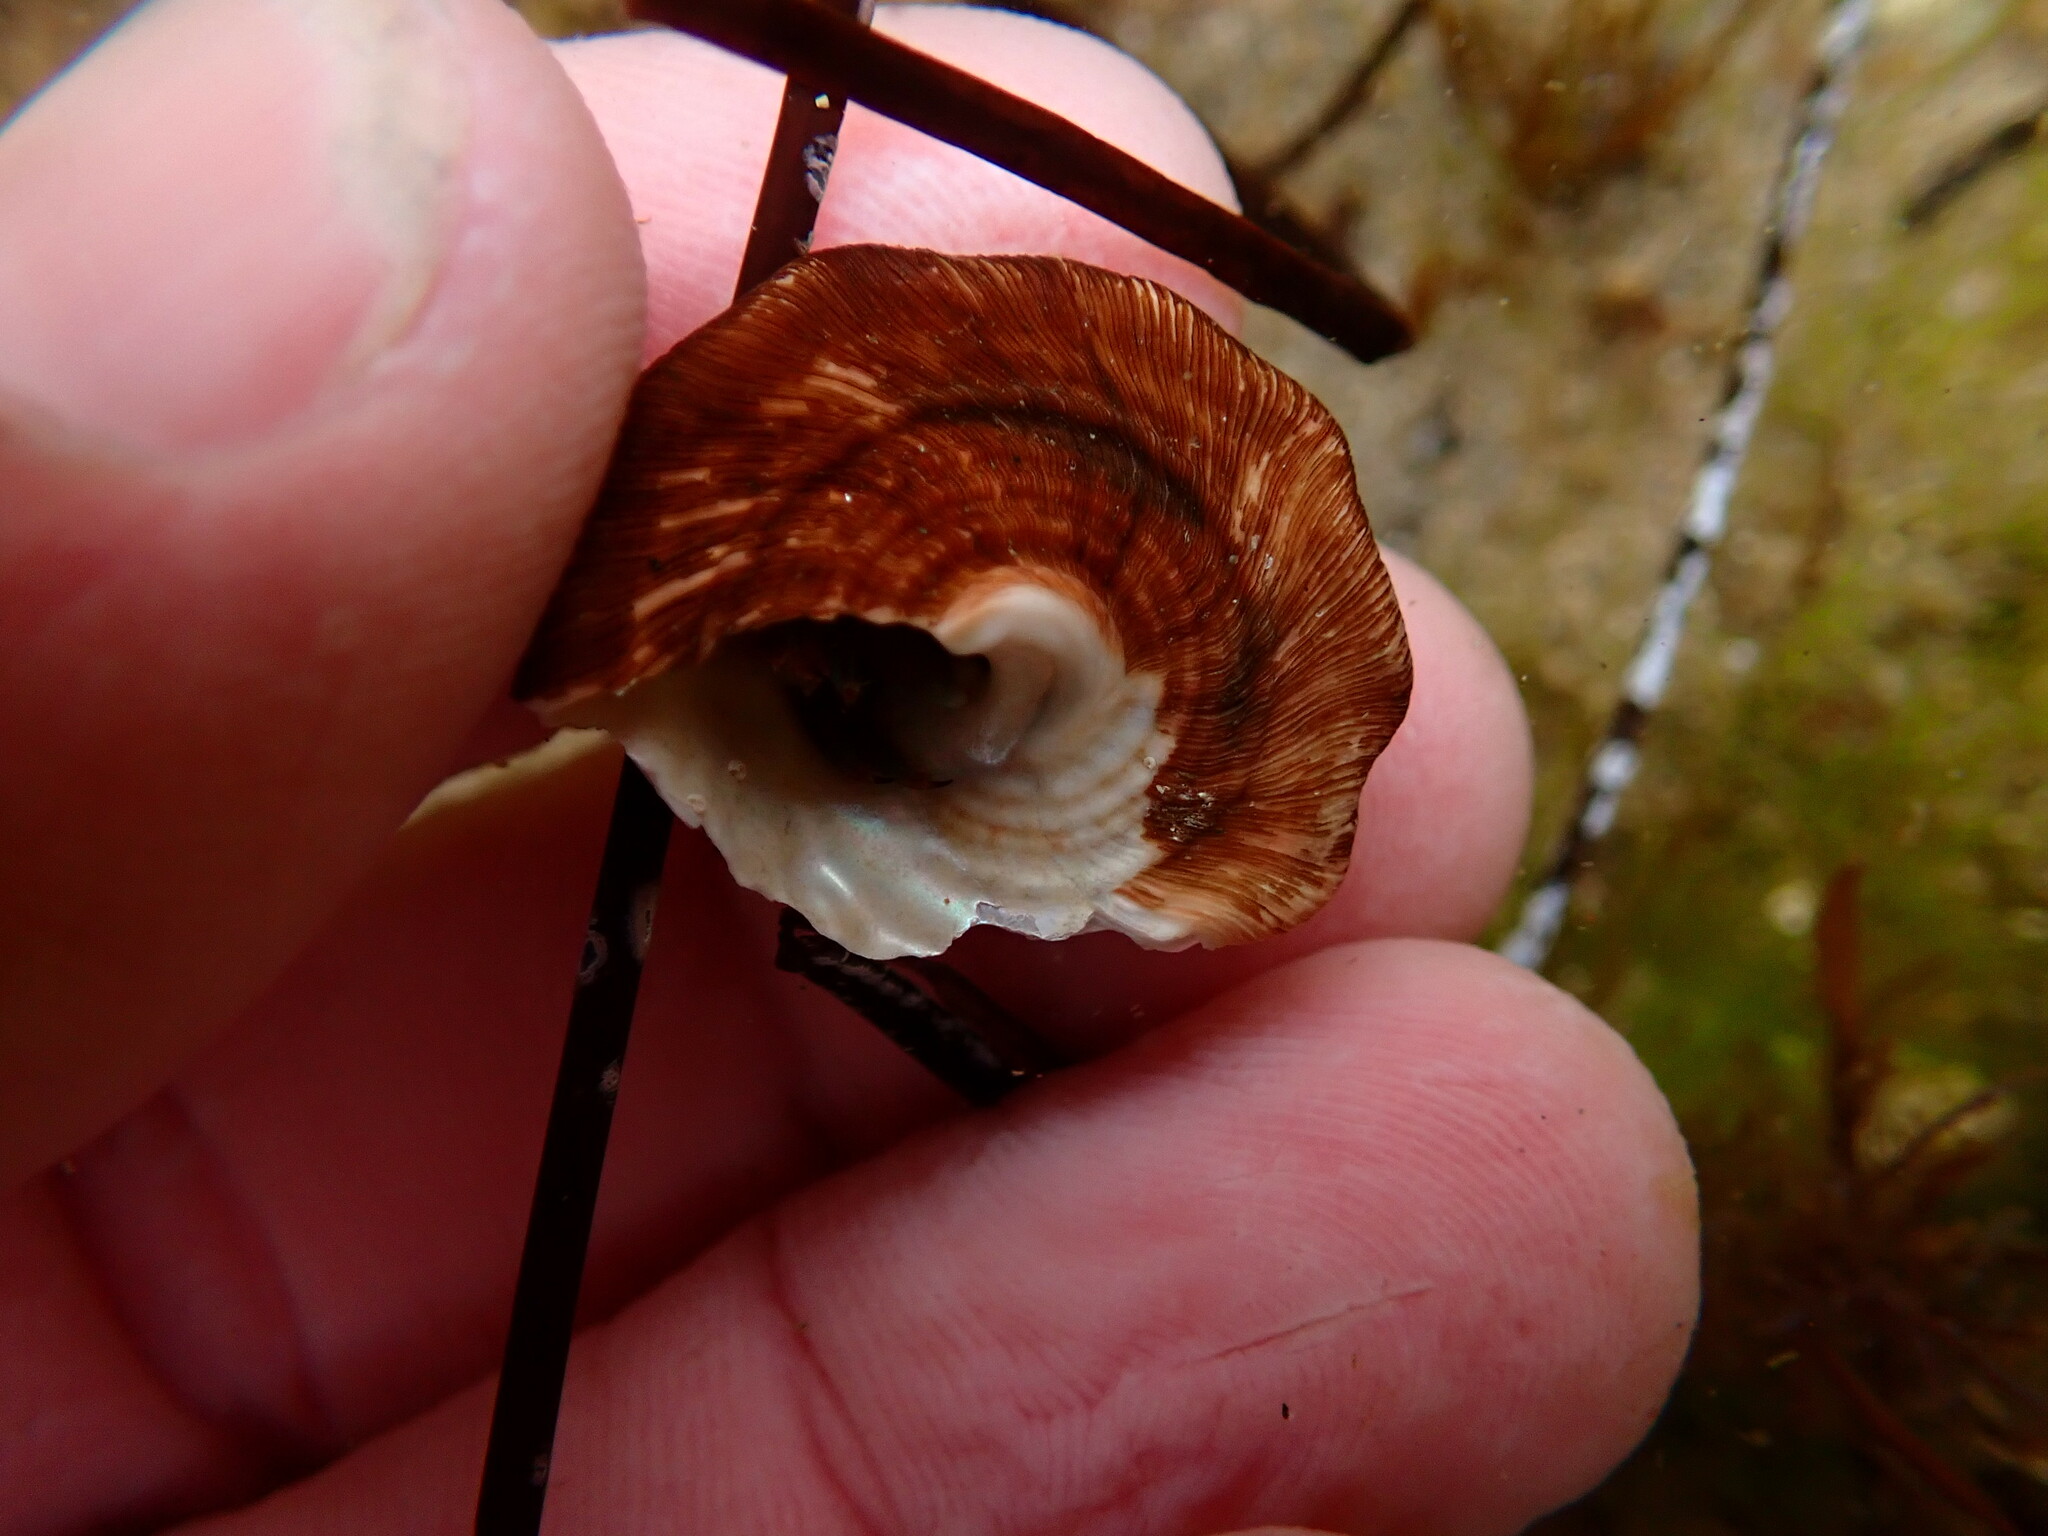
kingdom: Animalia
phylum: Mollusca
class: Gastropoda
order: Trochida
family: Turbinidae
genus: Megastraea
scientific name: Megastraea undosa
